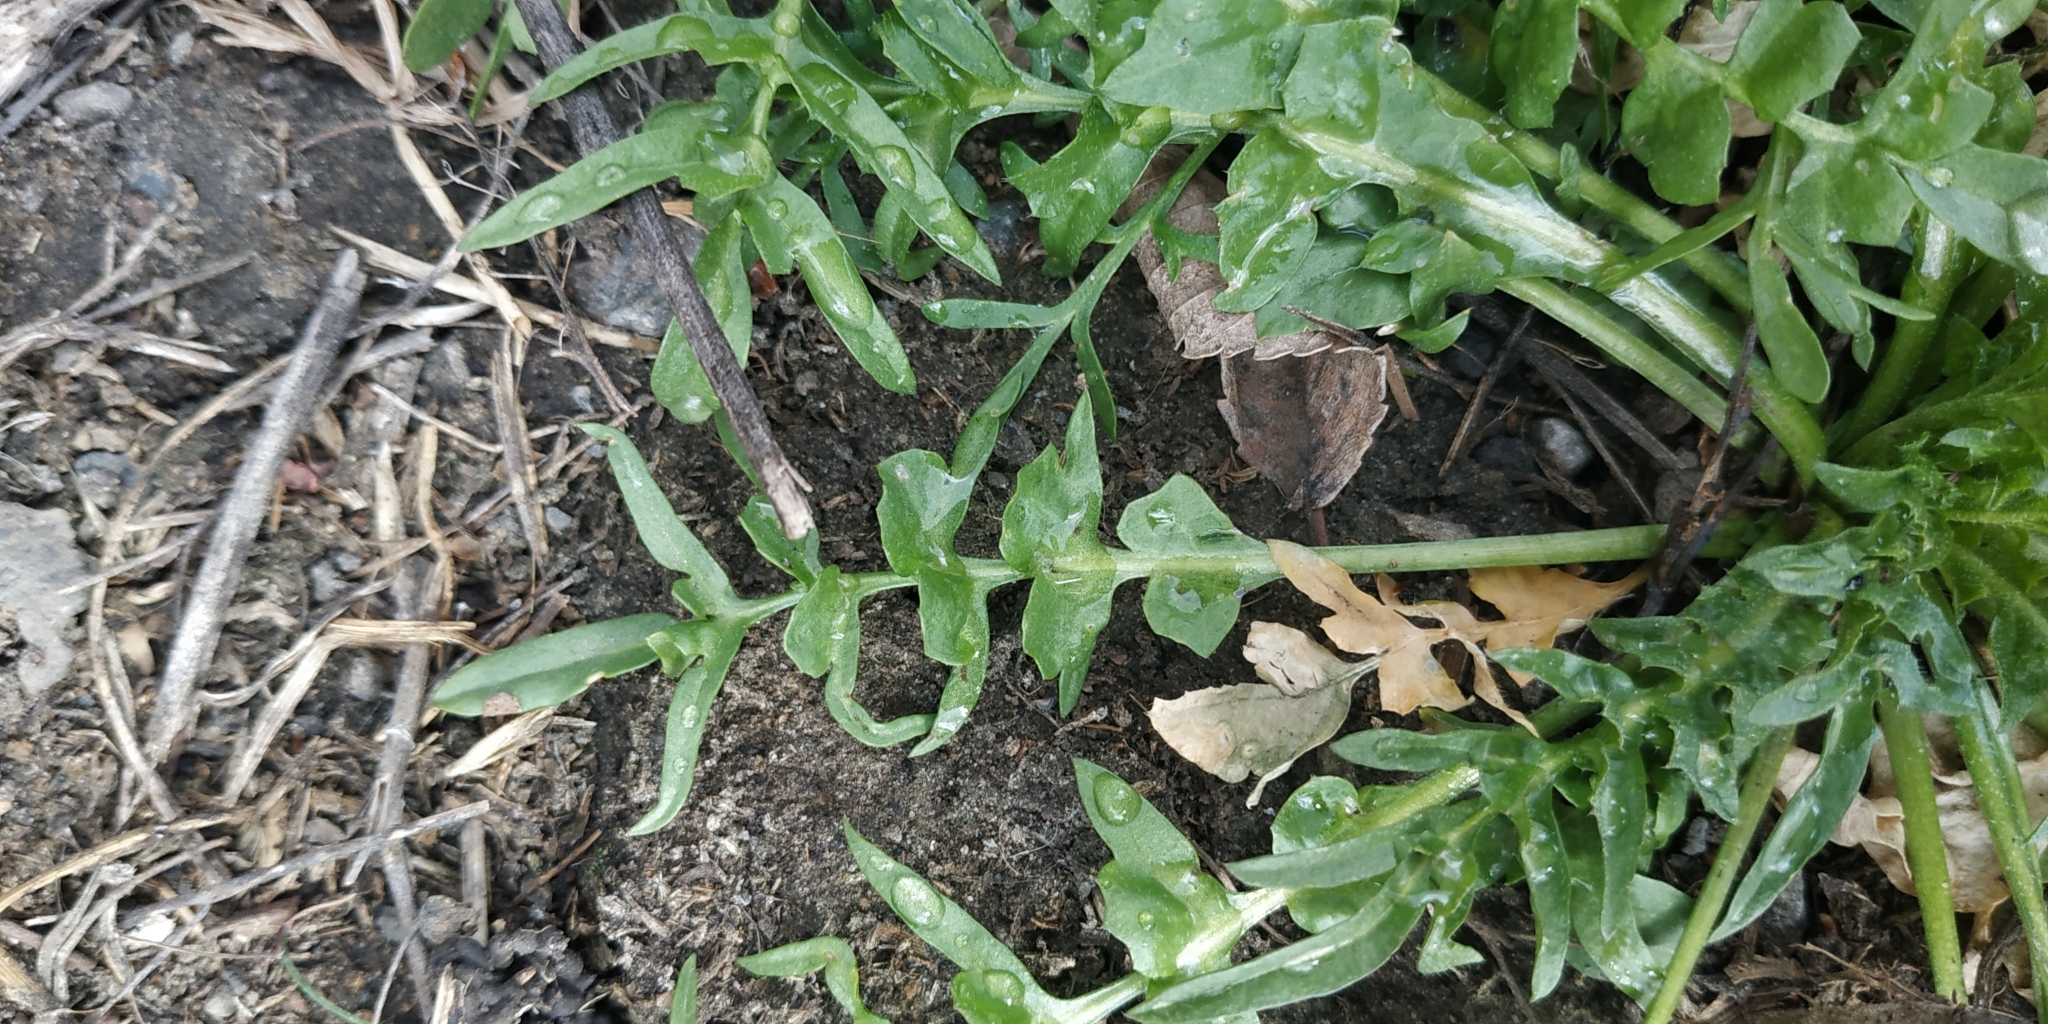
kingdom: Plantae
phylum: Tracheophyta
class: Magnoliopsida
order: Brassicales
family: Brassicaceae
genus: Capsella
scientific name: Capsella bursa-pastoris
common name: Shepherd's purse
